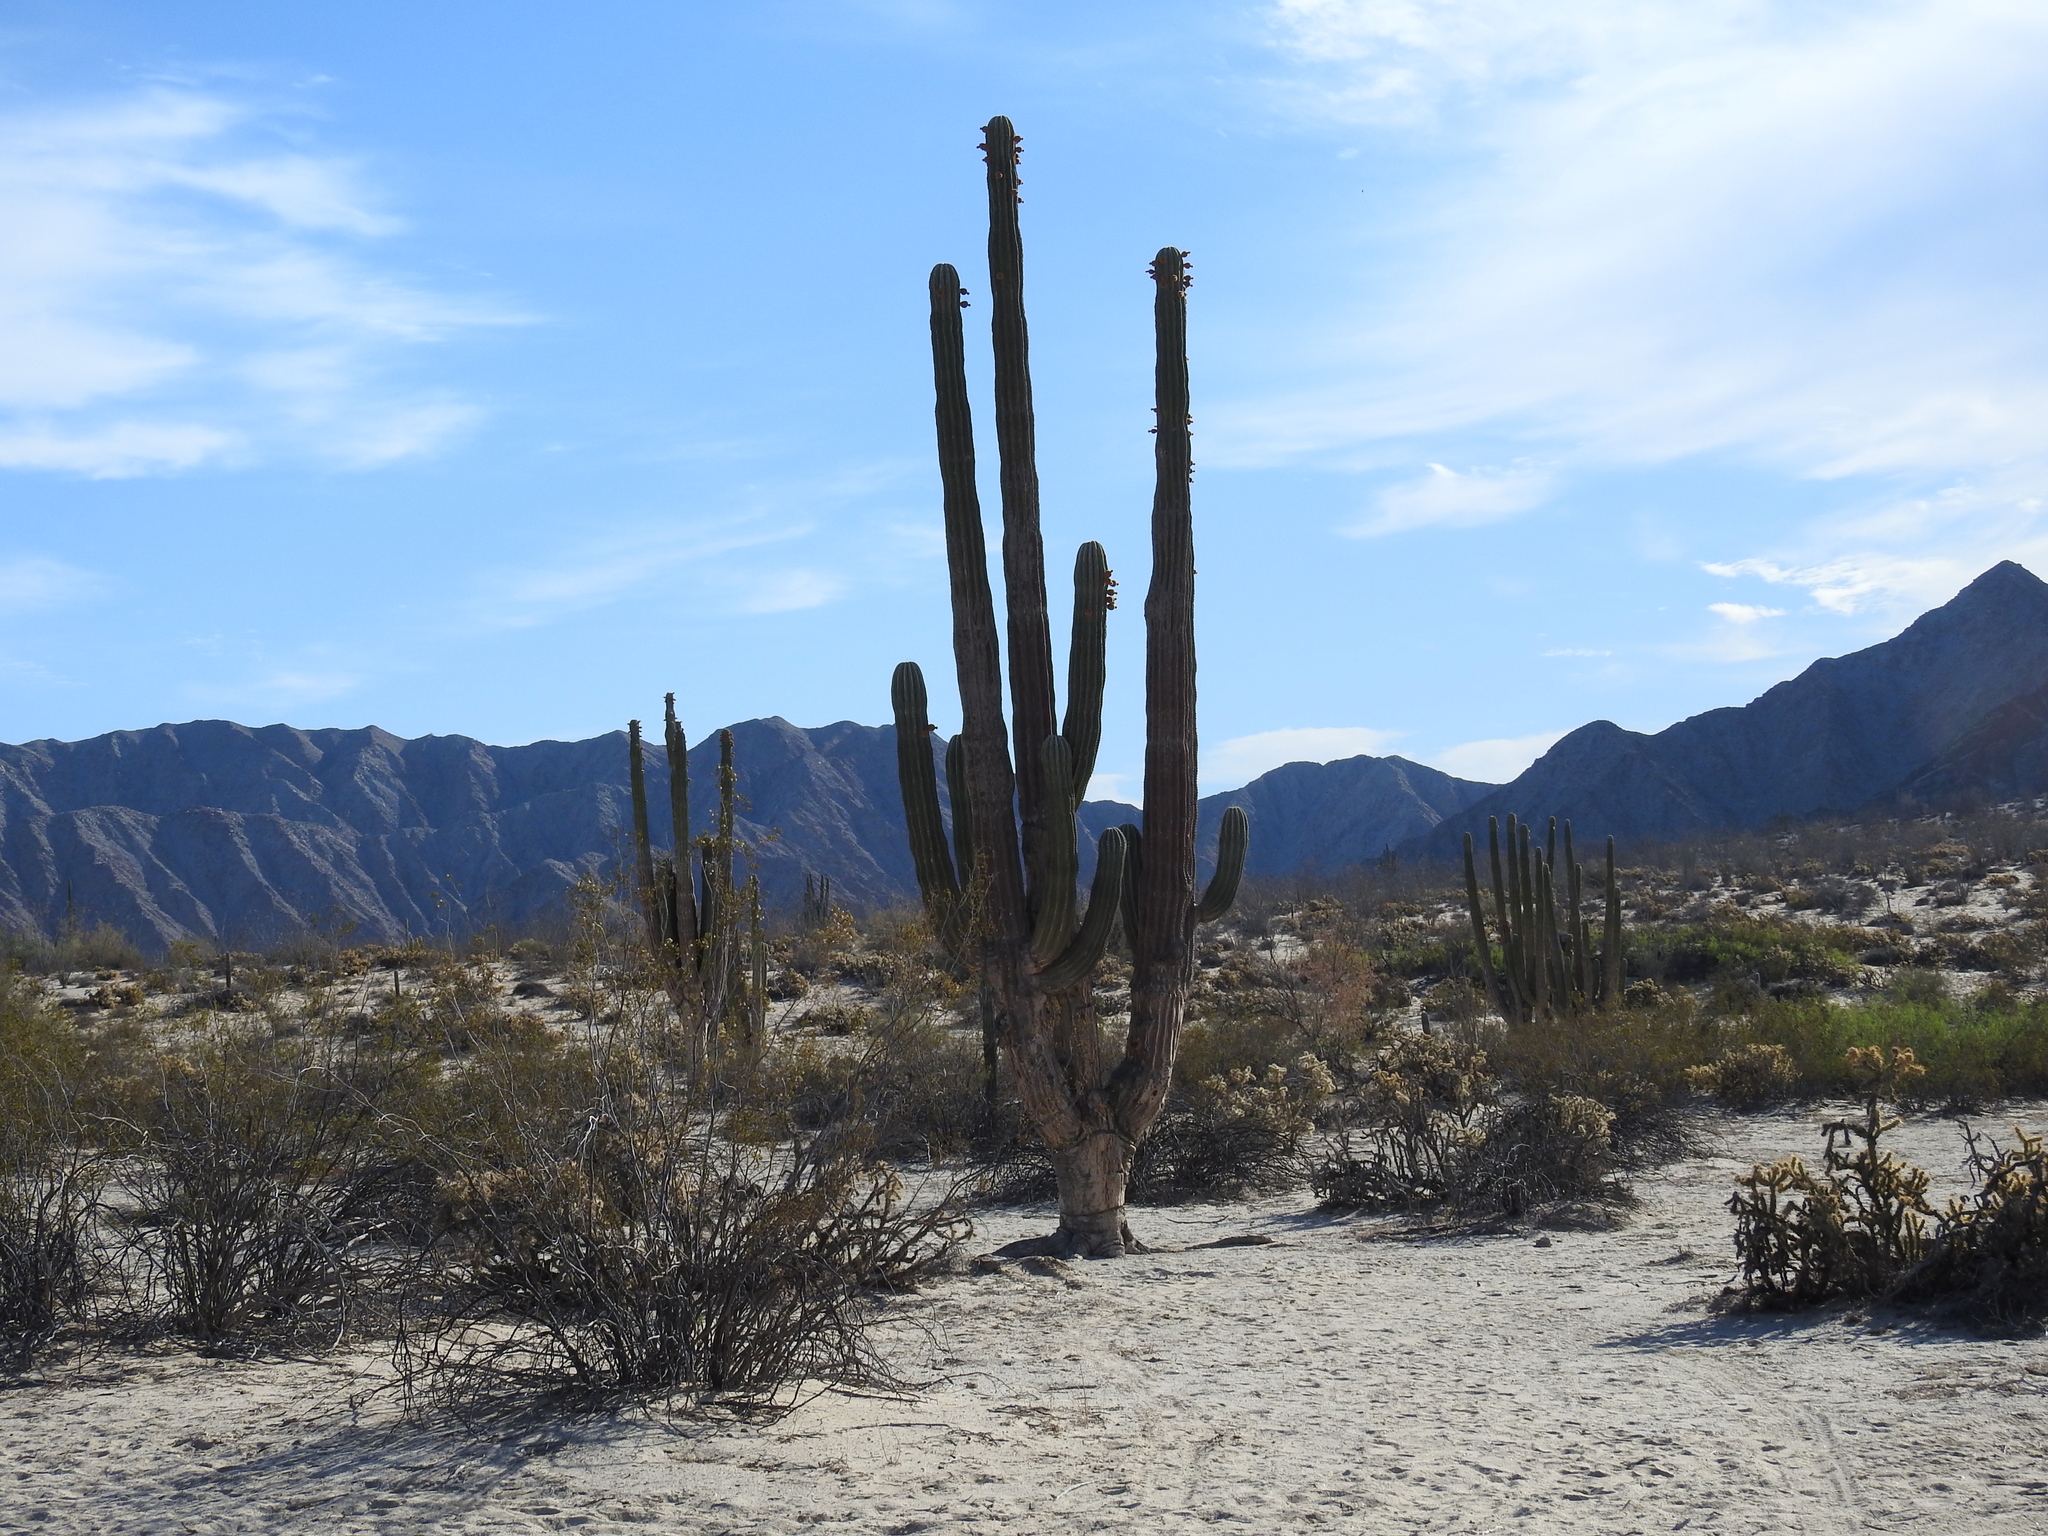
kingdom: Plantae
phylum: Tracheophyta
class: Magnoliopsida
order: Caryophyllales
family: Cactaceae
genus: Pachycereus
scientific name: Pachycereus pringlei
